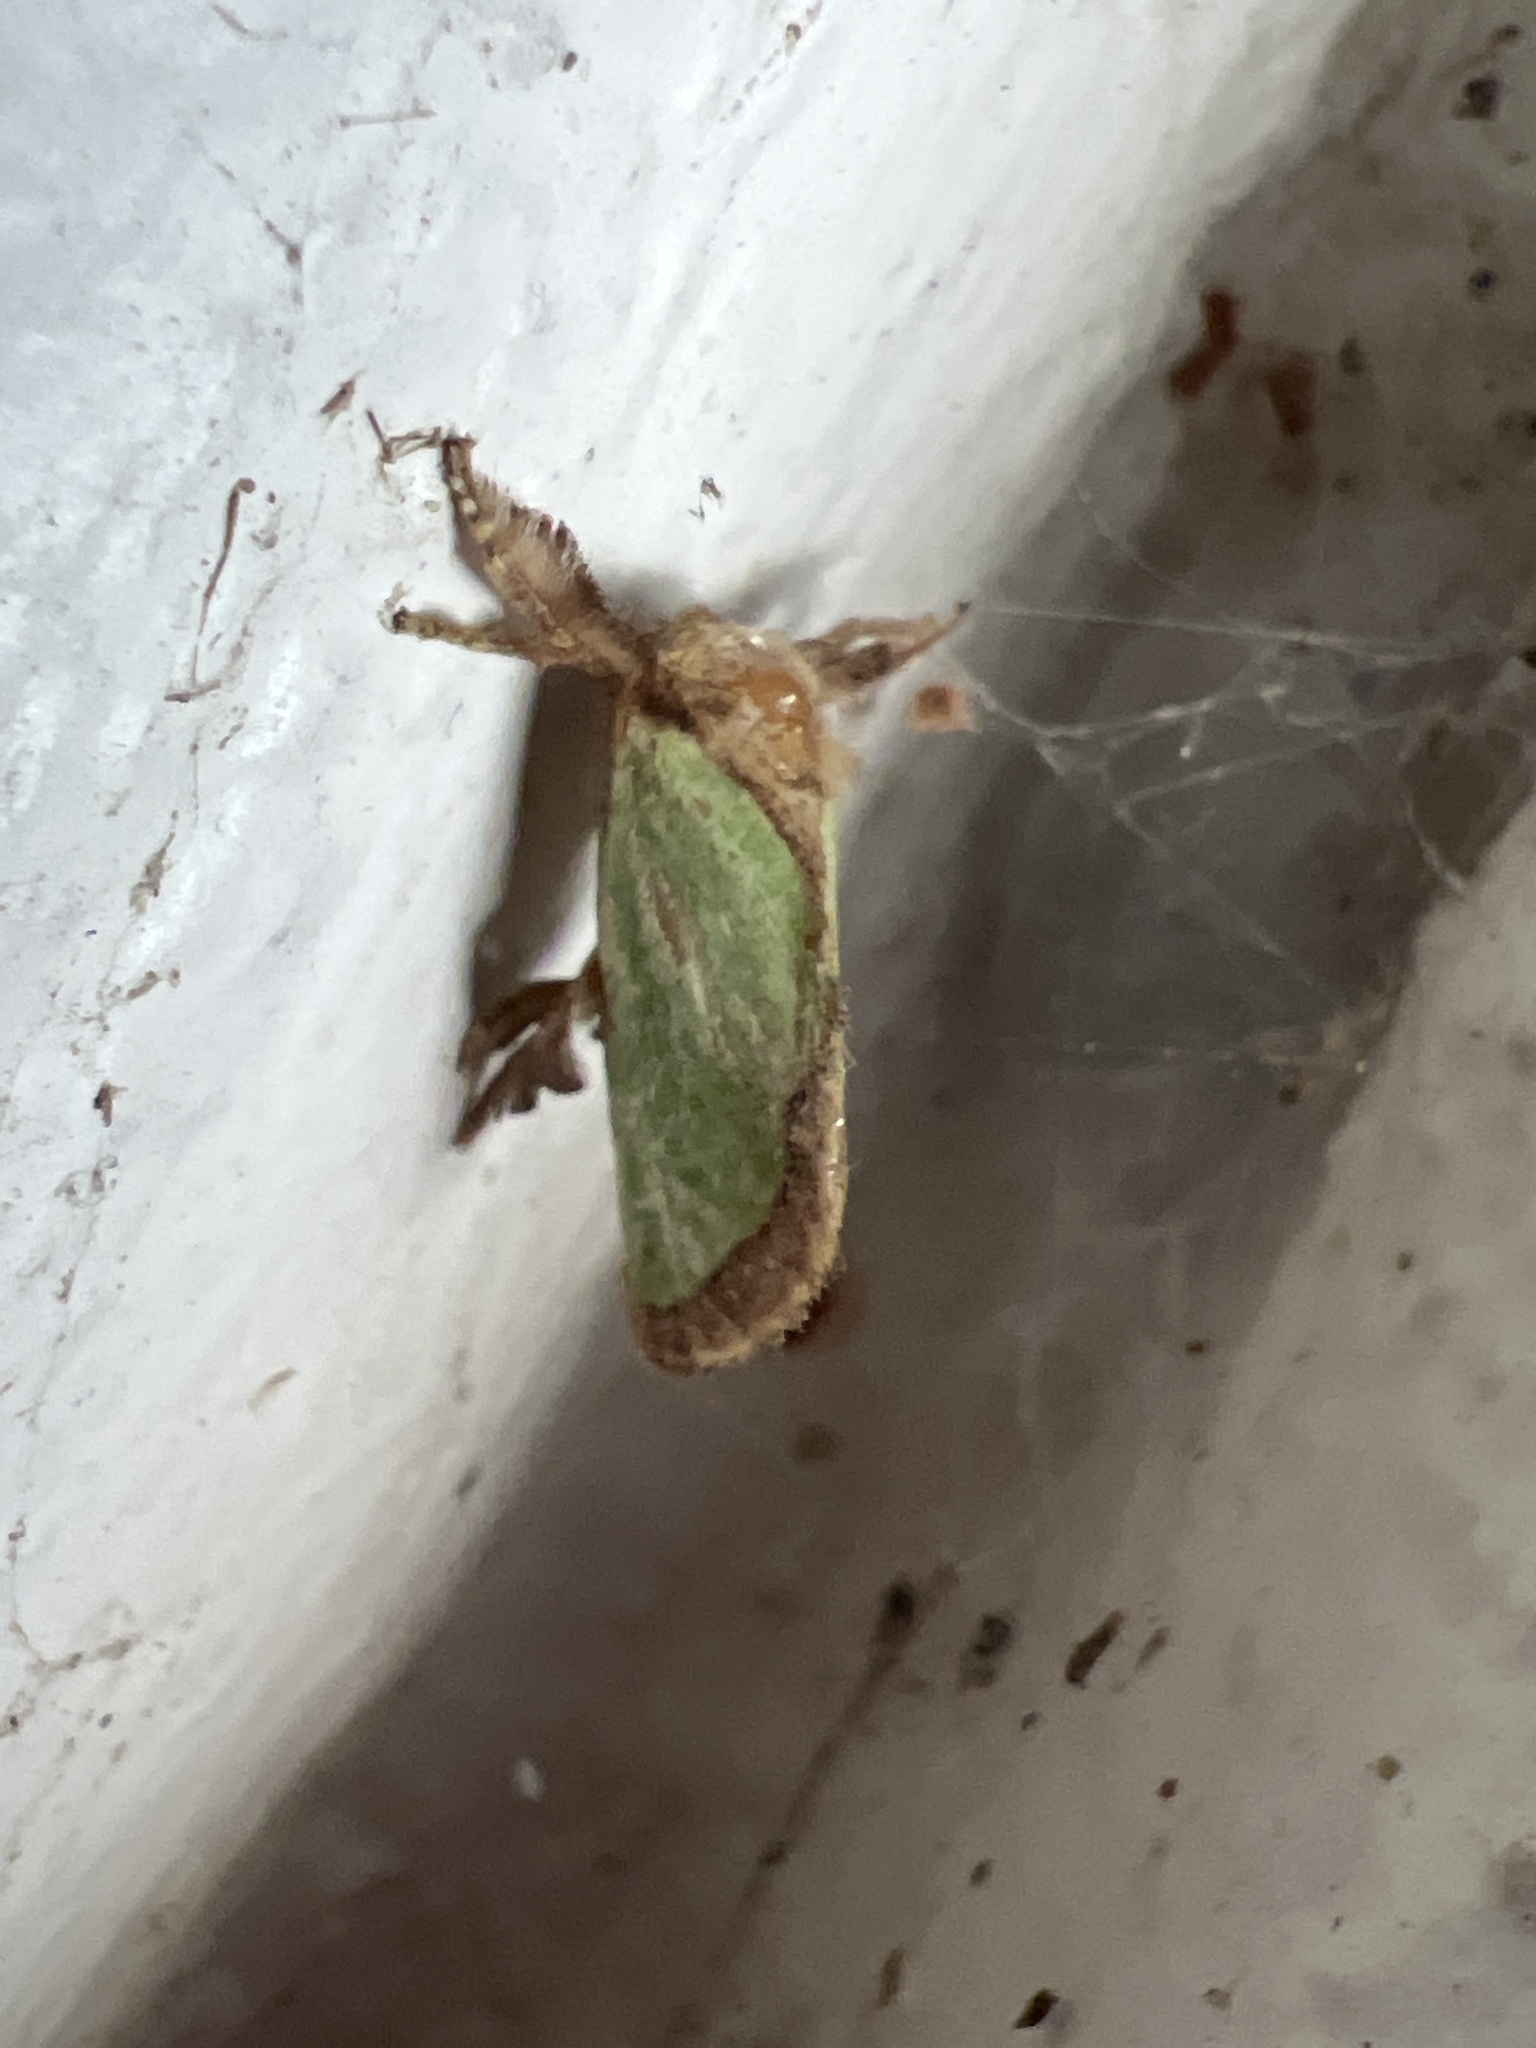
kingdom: Animalia
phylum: Arthropoda
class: Insecta
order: Lepidoptera
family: Limacodidae
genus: Euclea
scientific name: Euclea incisa
